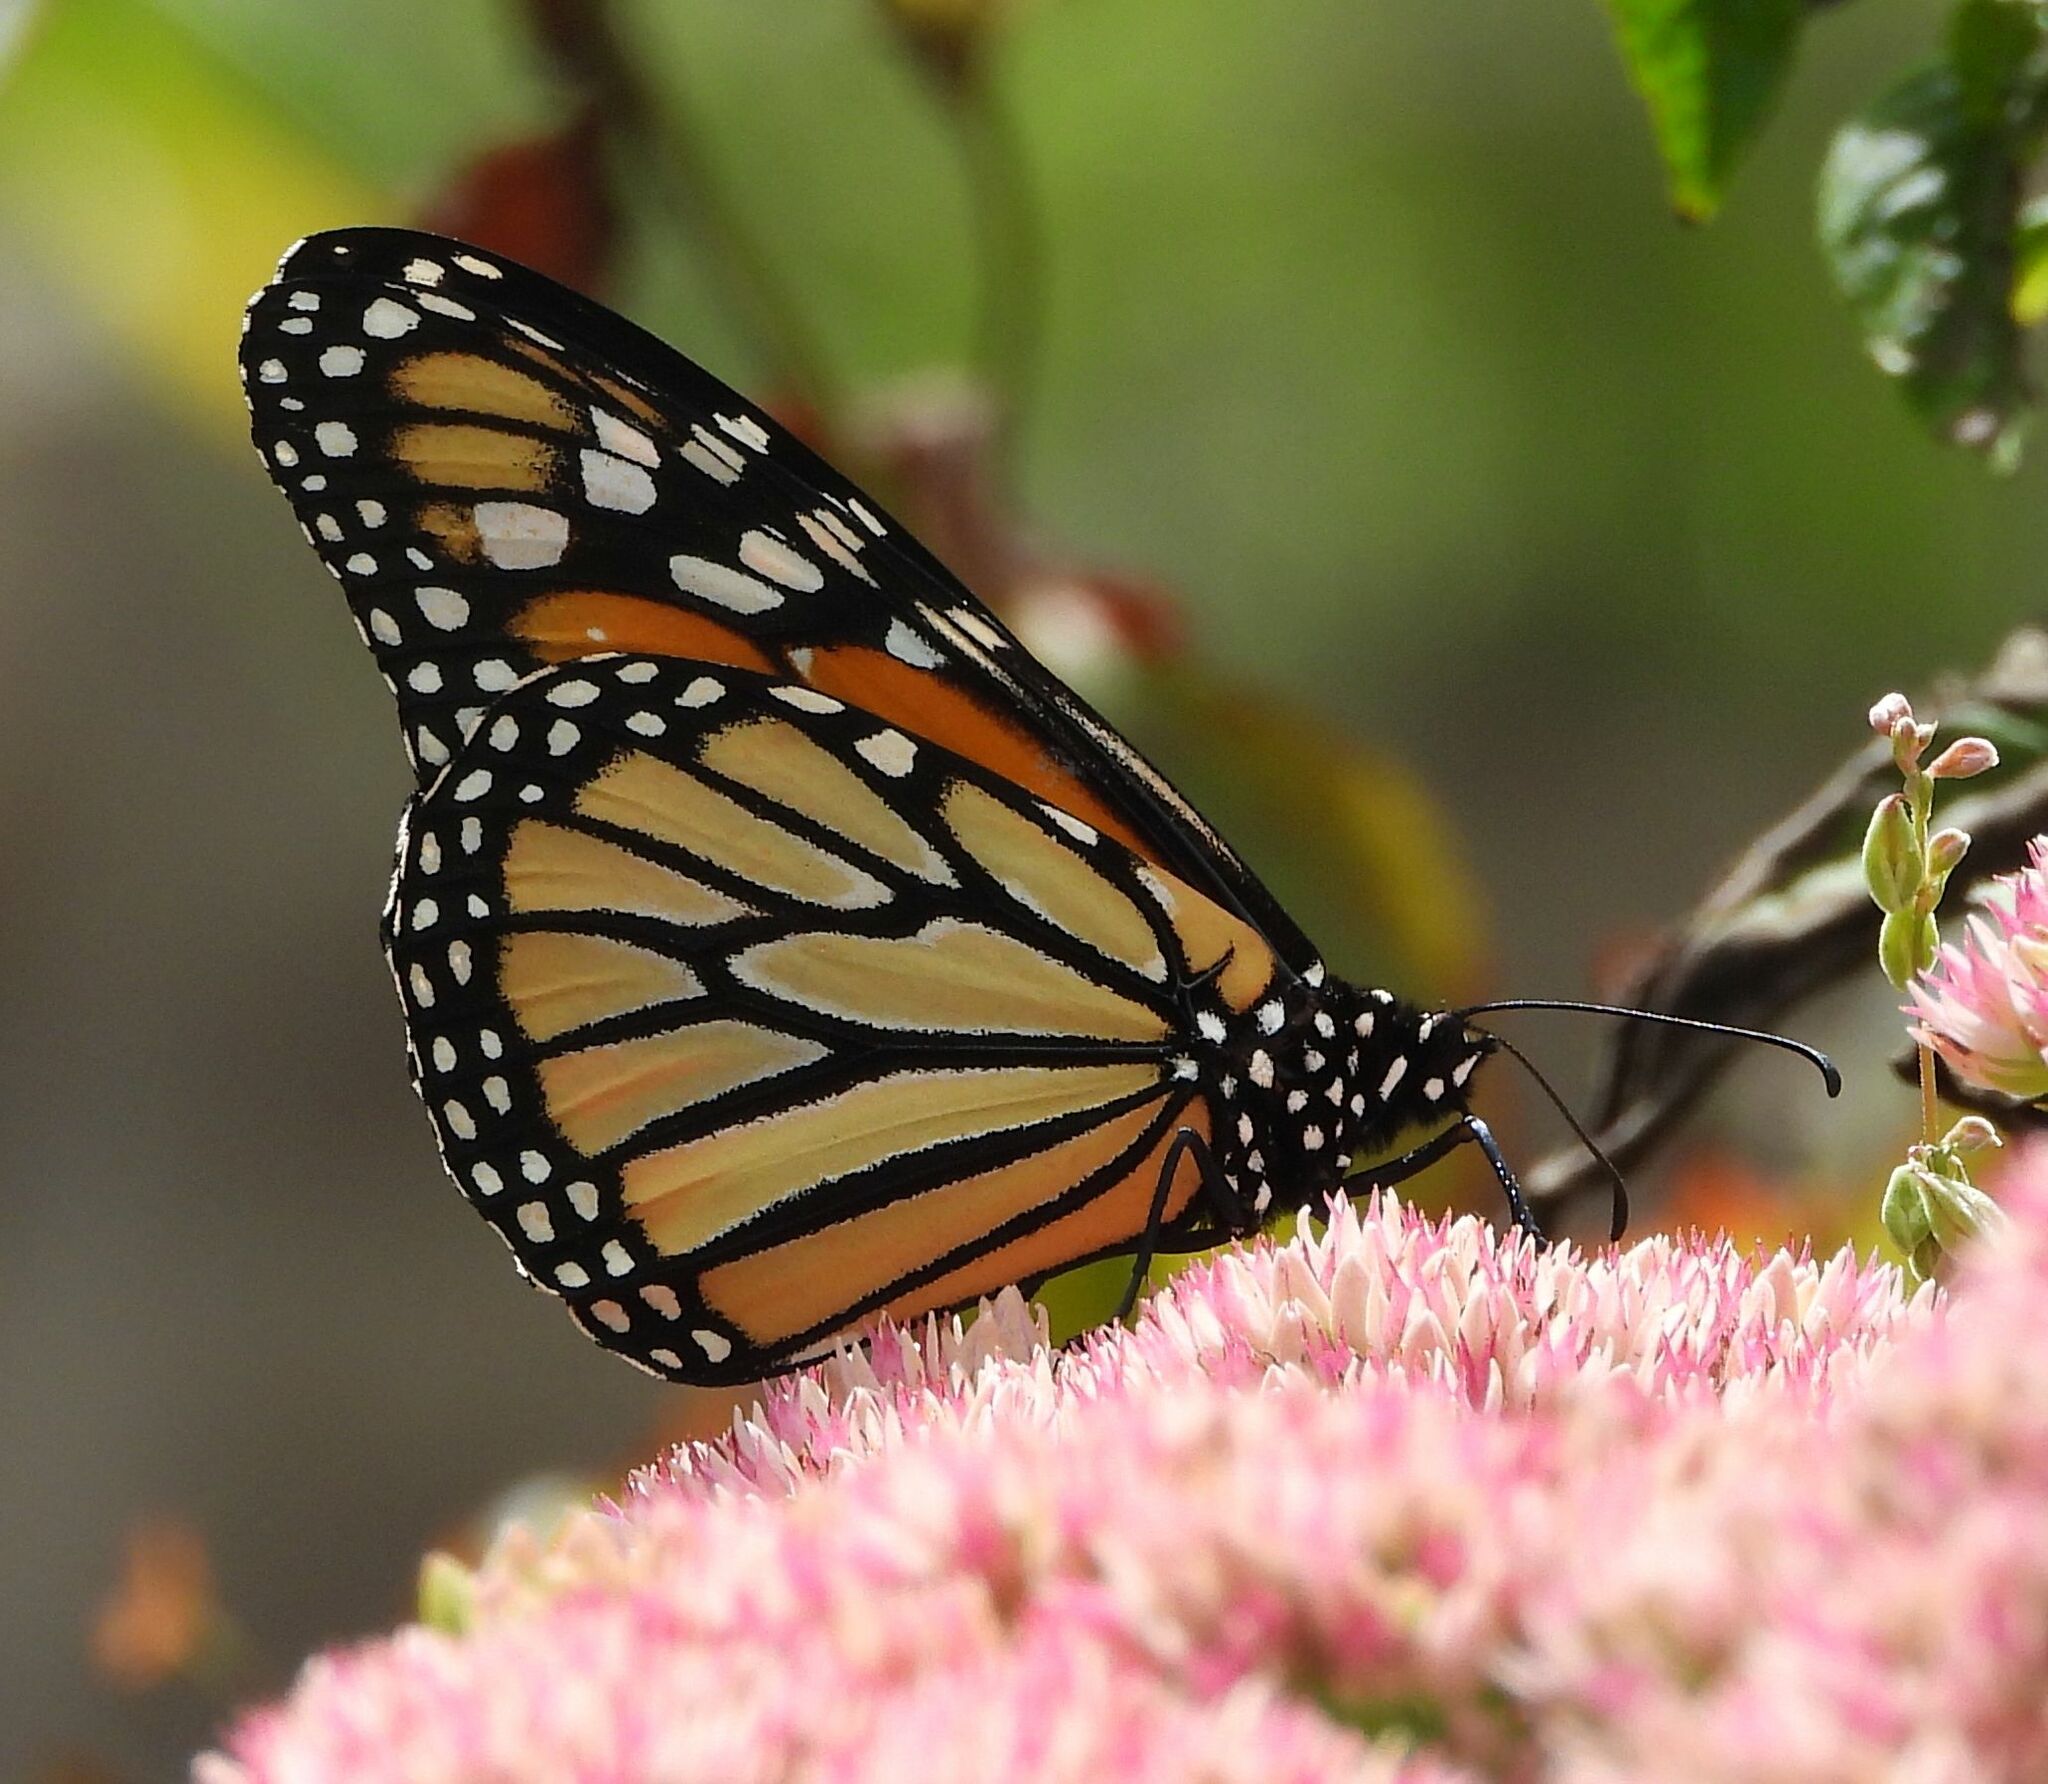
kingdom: Animalia
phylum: Arthropoda
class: Insecta
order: Lepidoptera
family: Nymphalidae
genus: Danaus
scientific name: Danaus plexippus
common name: Monarch
